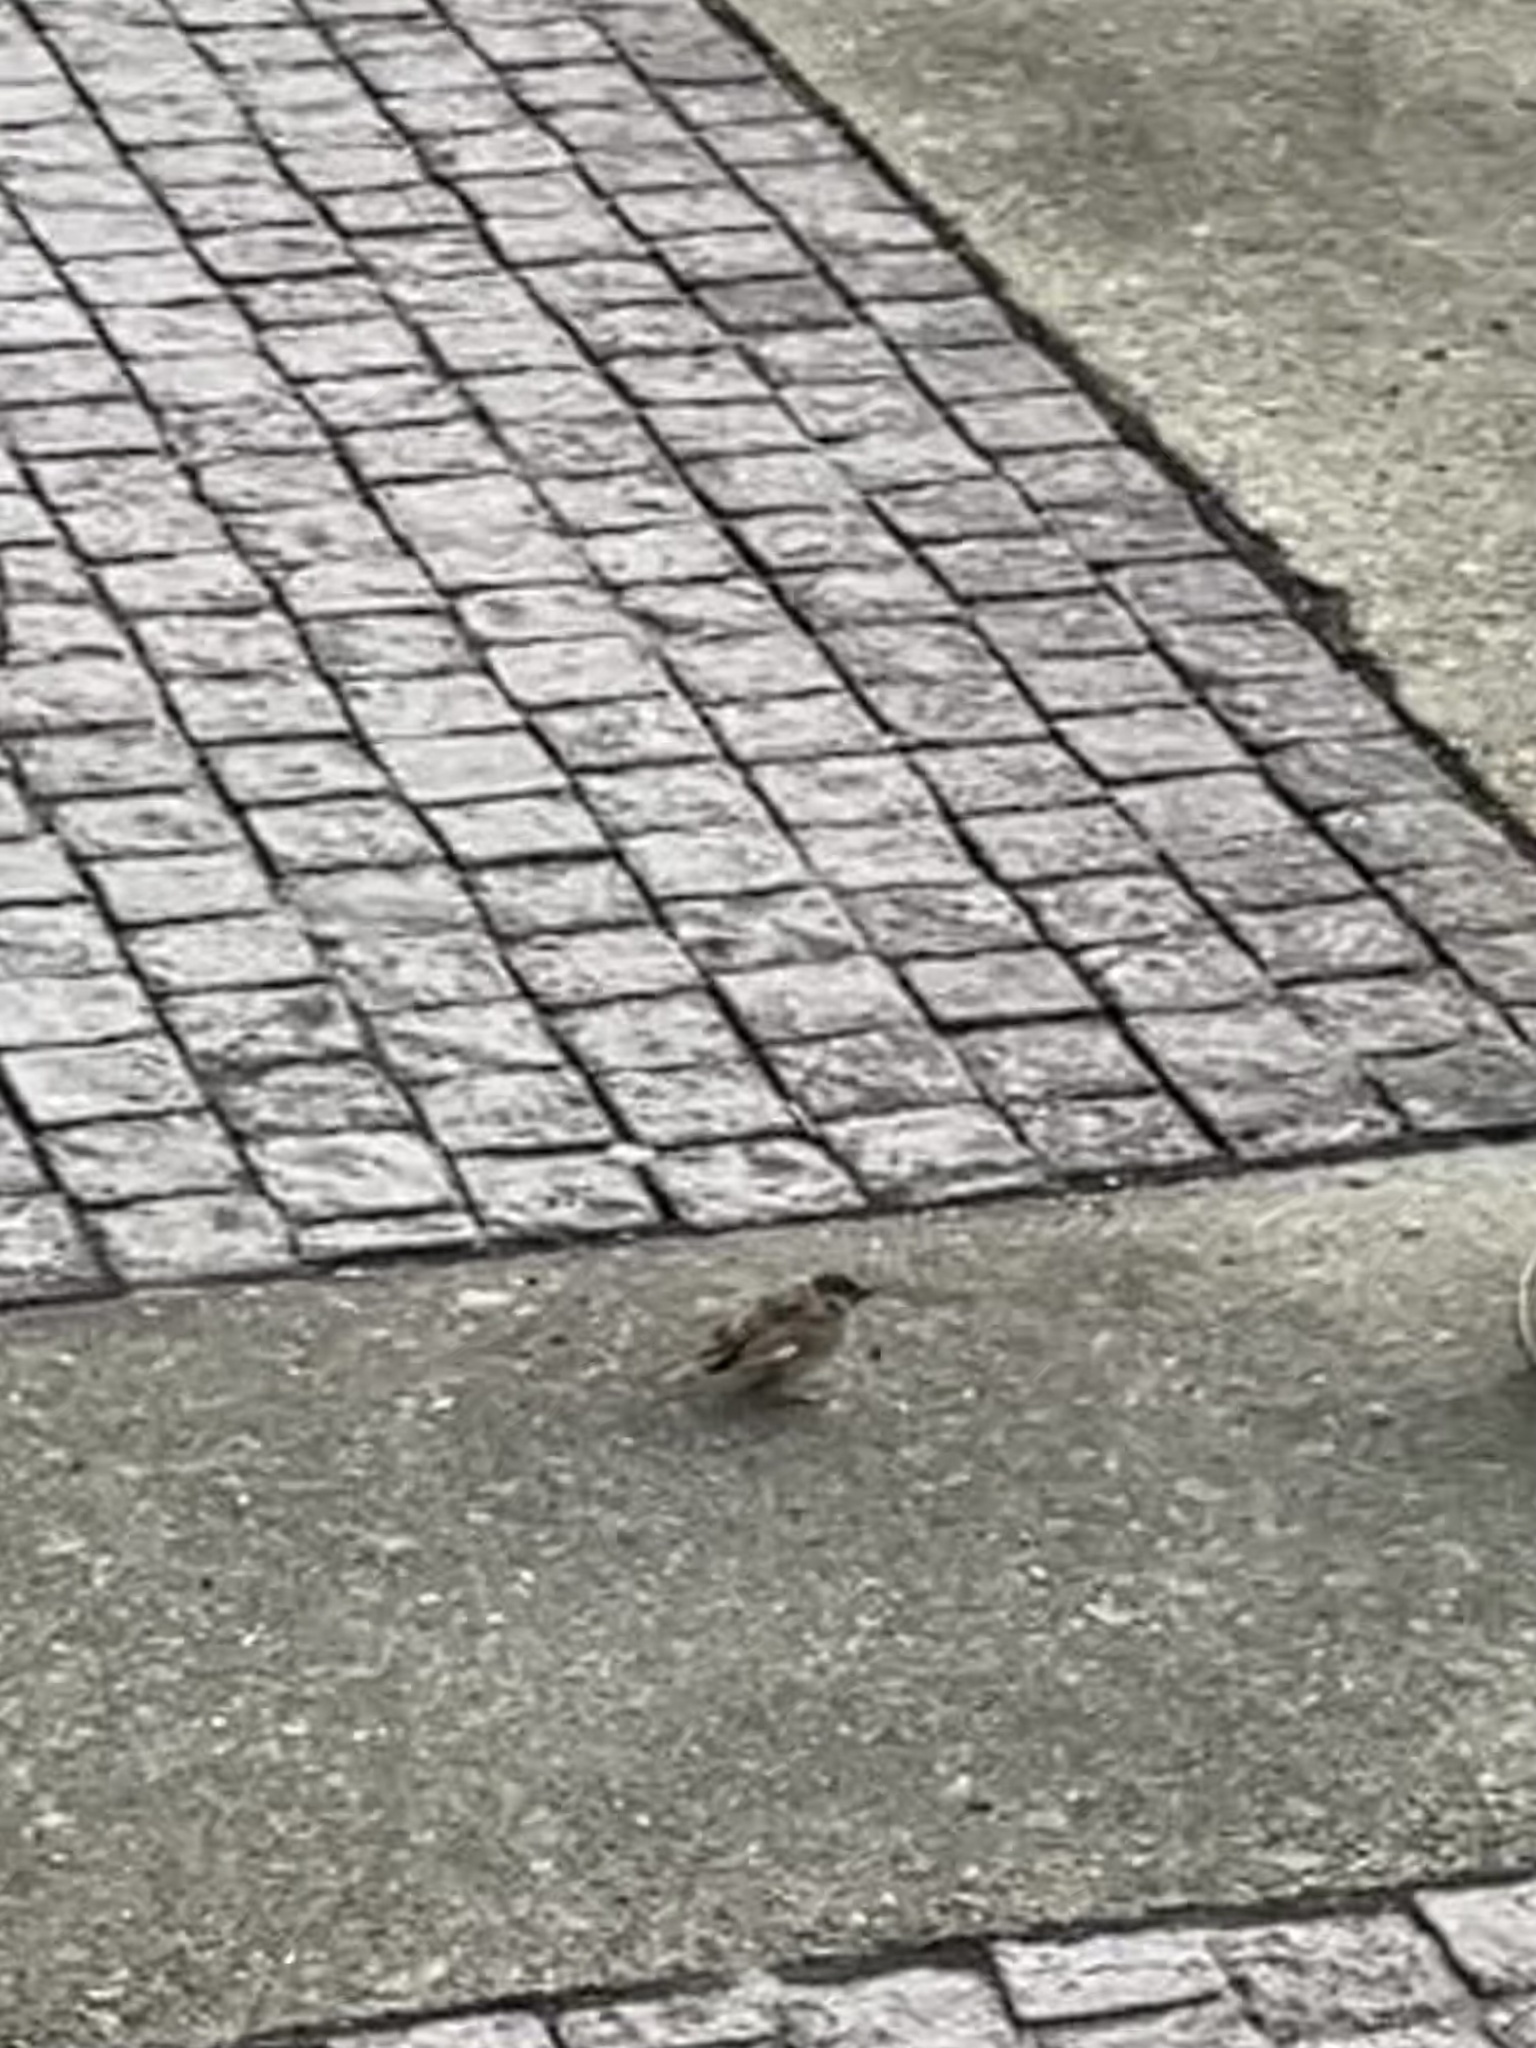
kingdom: Animalia
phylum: Chordata
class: Aves
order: Passeriformes
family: Passeridae
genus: Passer
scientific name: Passer montanus
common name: Eurasian tree sparrow
